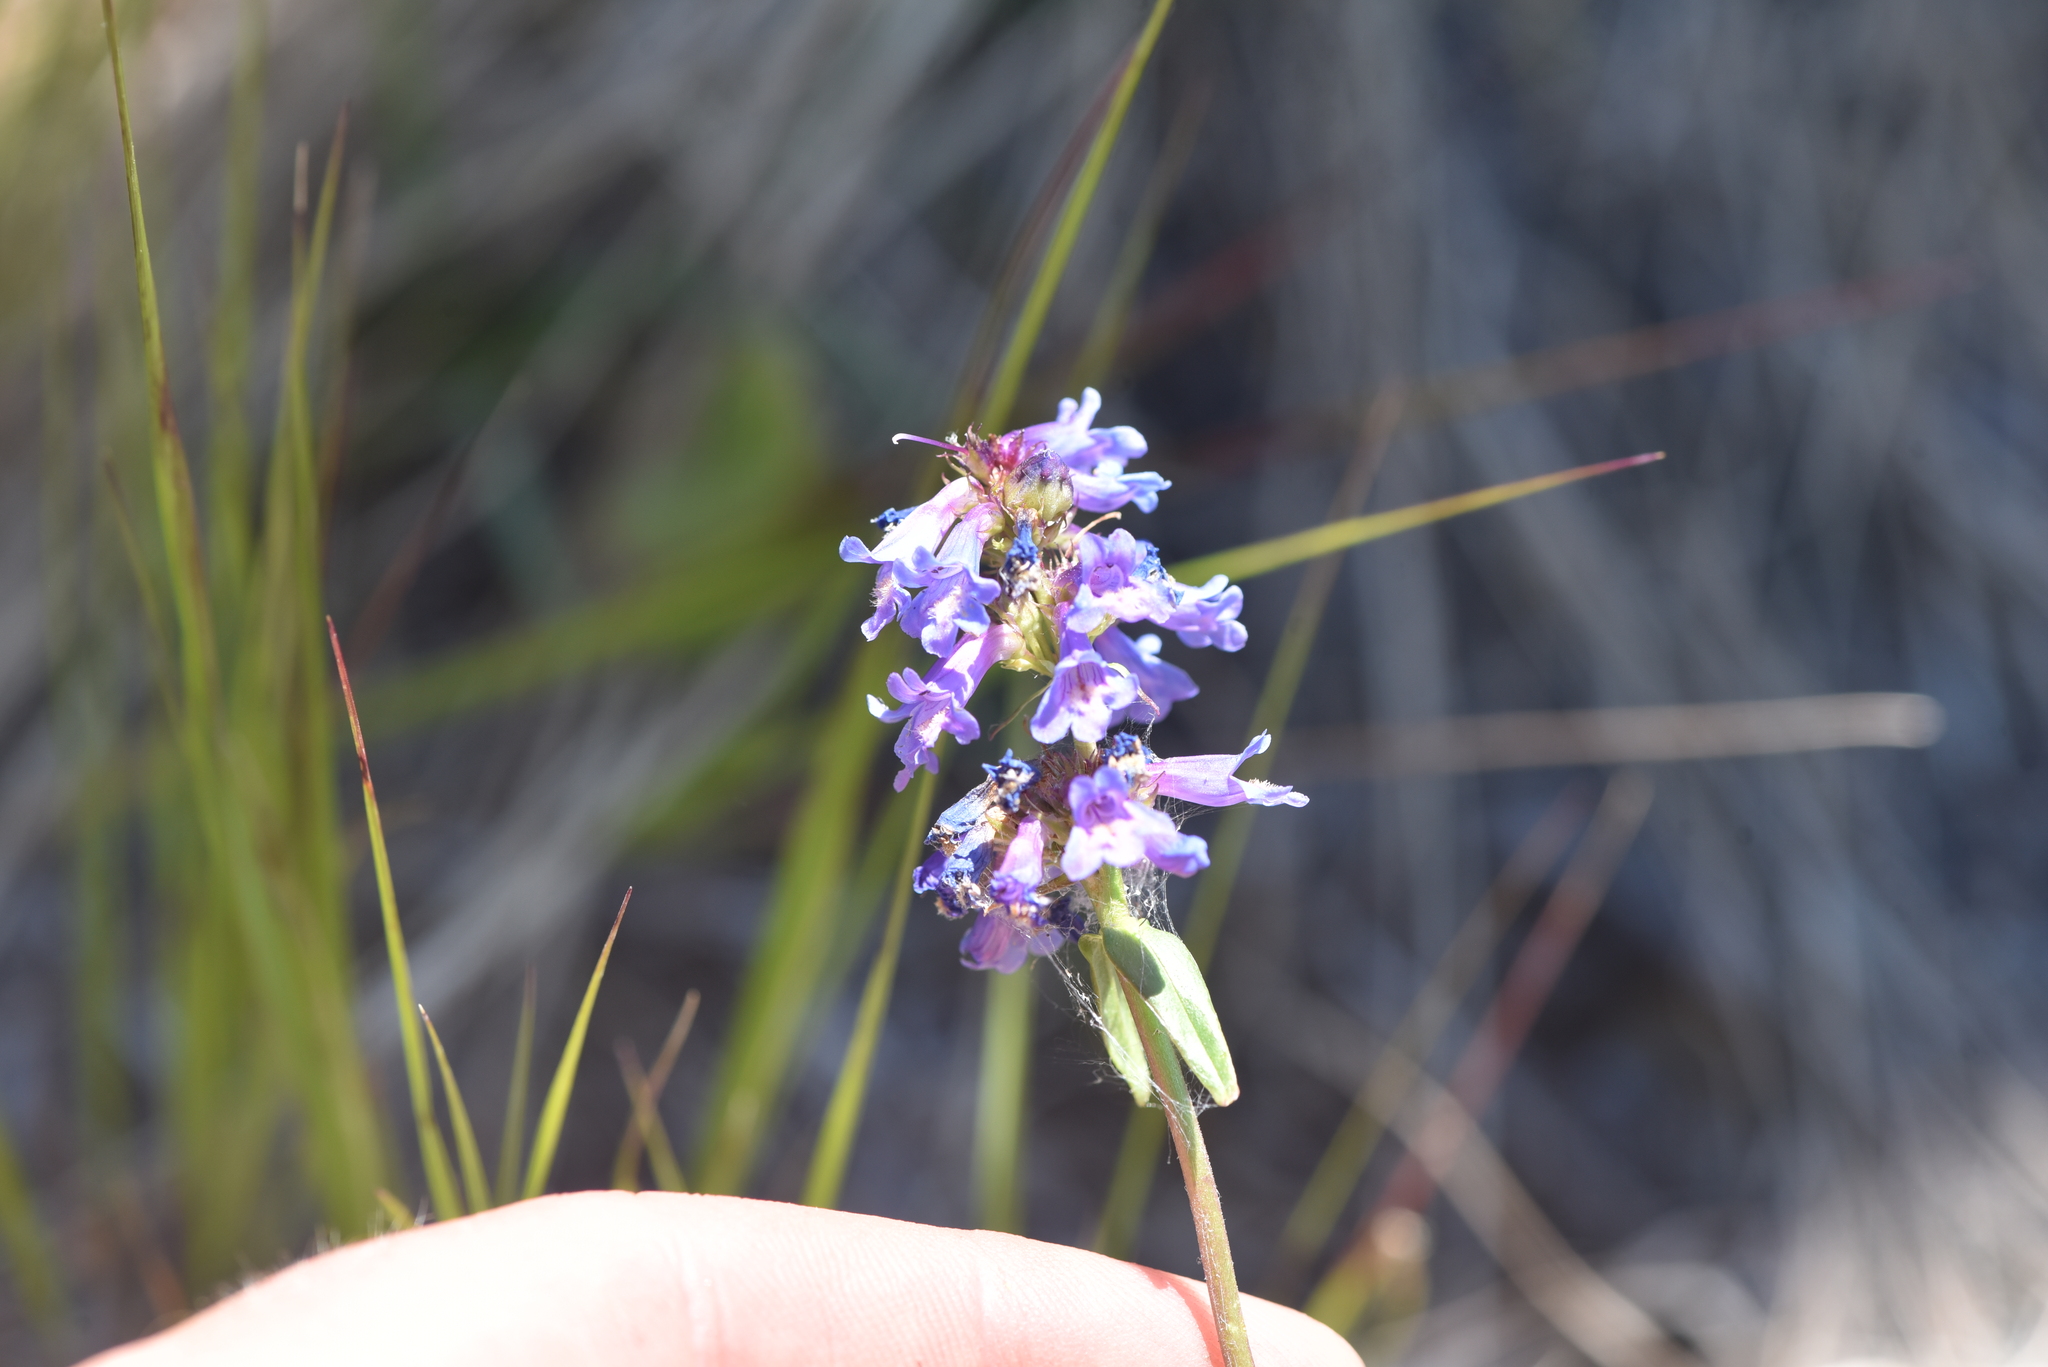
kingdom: Plantae
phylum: Tracheophyta
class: Magnoliopsida
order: Lamiales
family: Plantaginaceae
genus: Penstemon
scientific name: Penstemon procerus
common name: Small-flower penstemon
